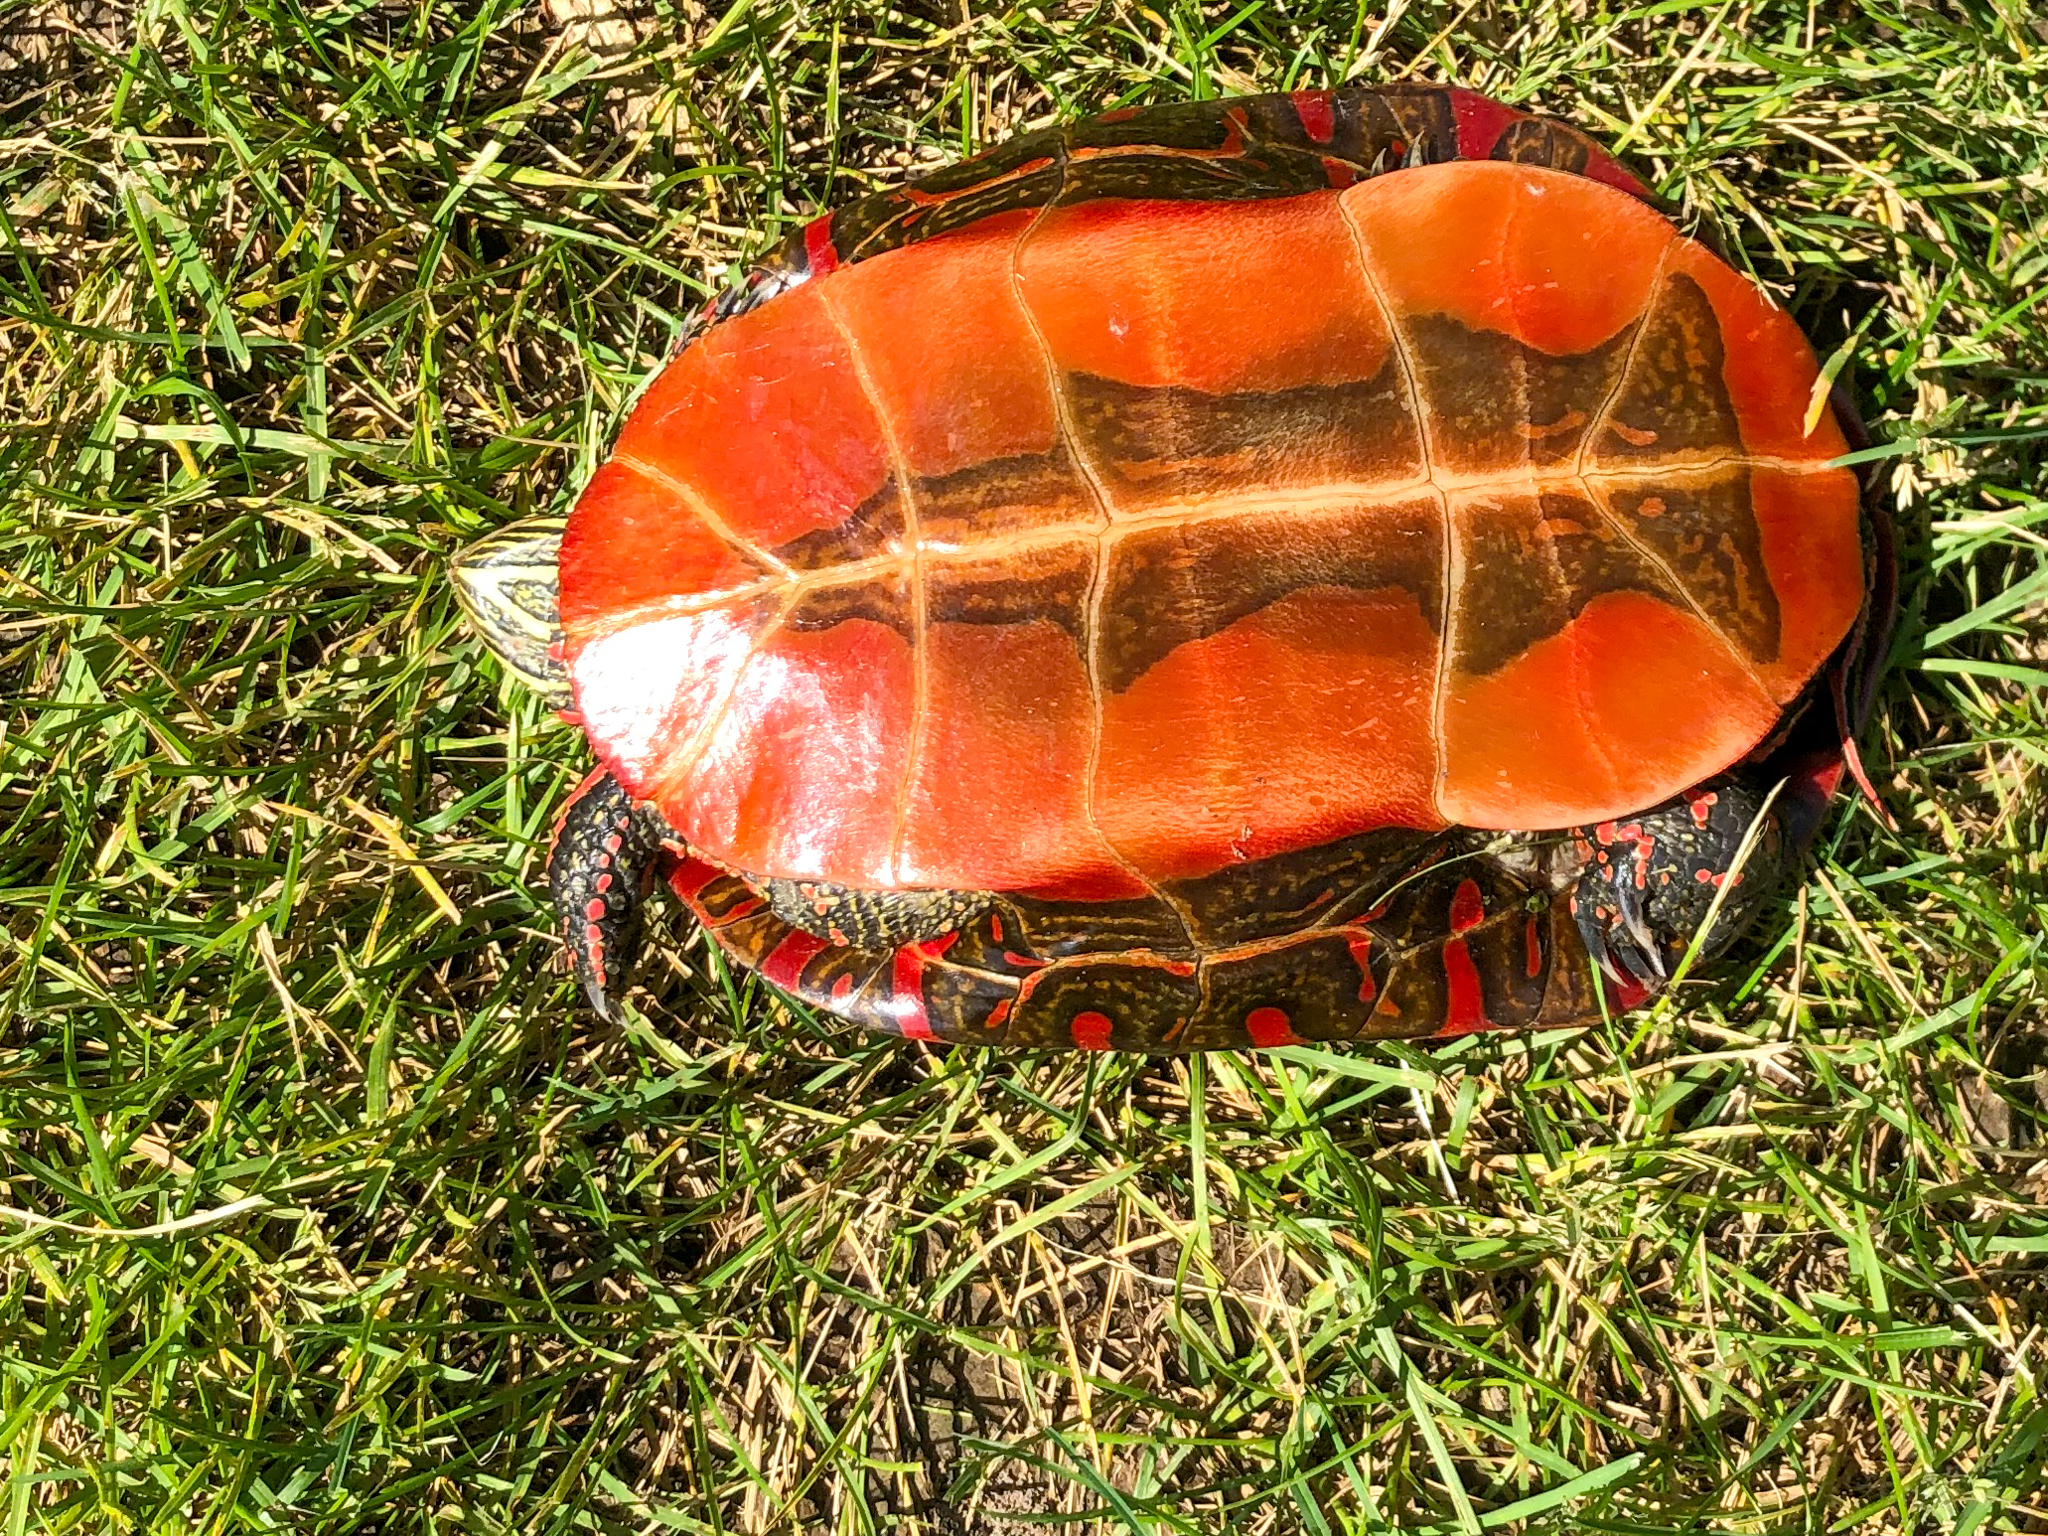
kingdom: Animalia
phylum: Chordata
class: Testudines
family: Emydidae
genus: Chrysemys
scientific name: Chrysemys picta
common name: Painted turtle
